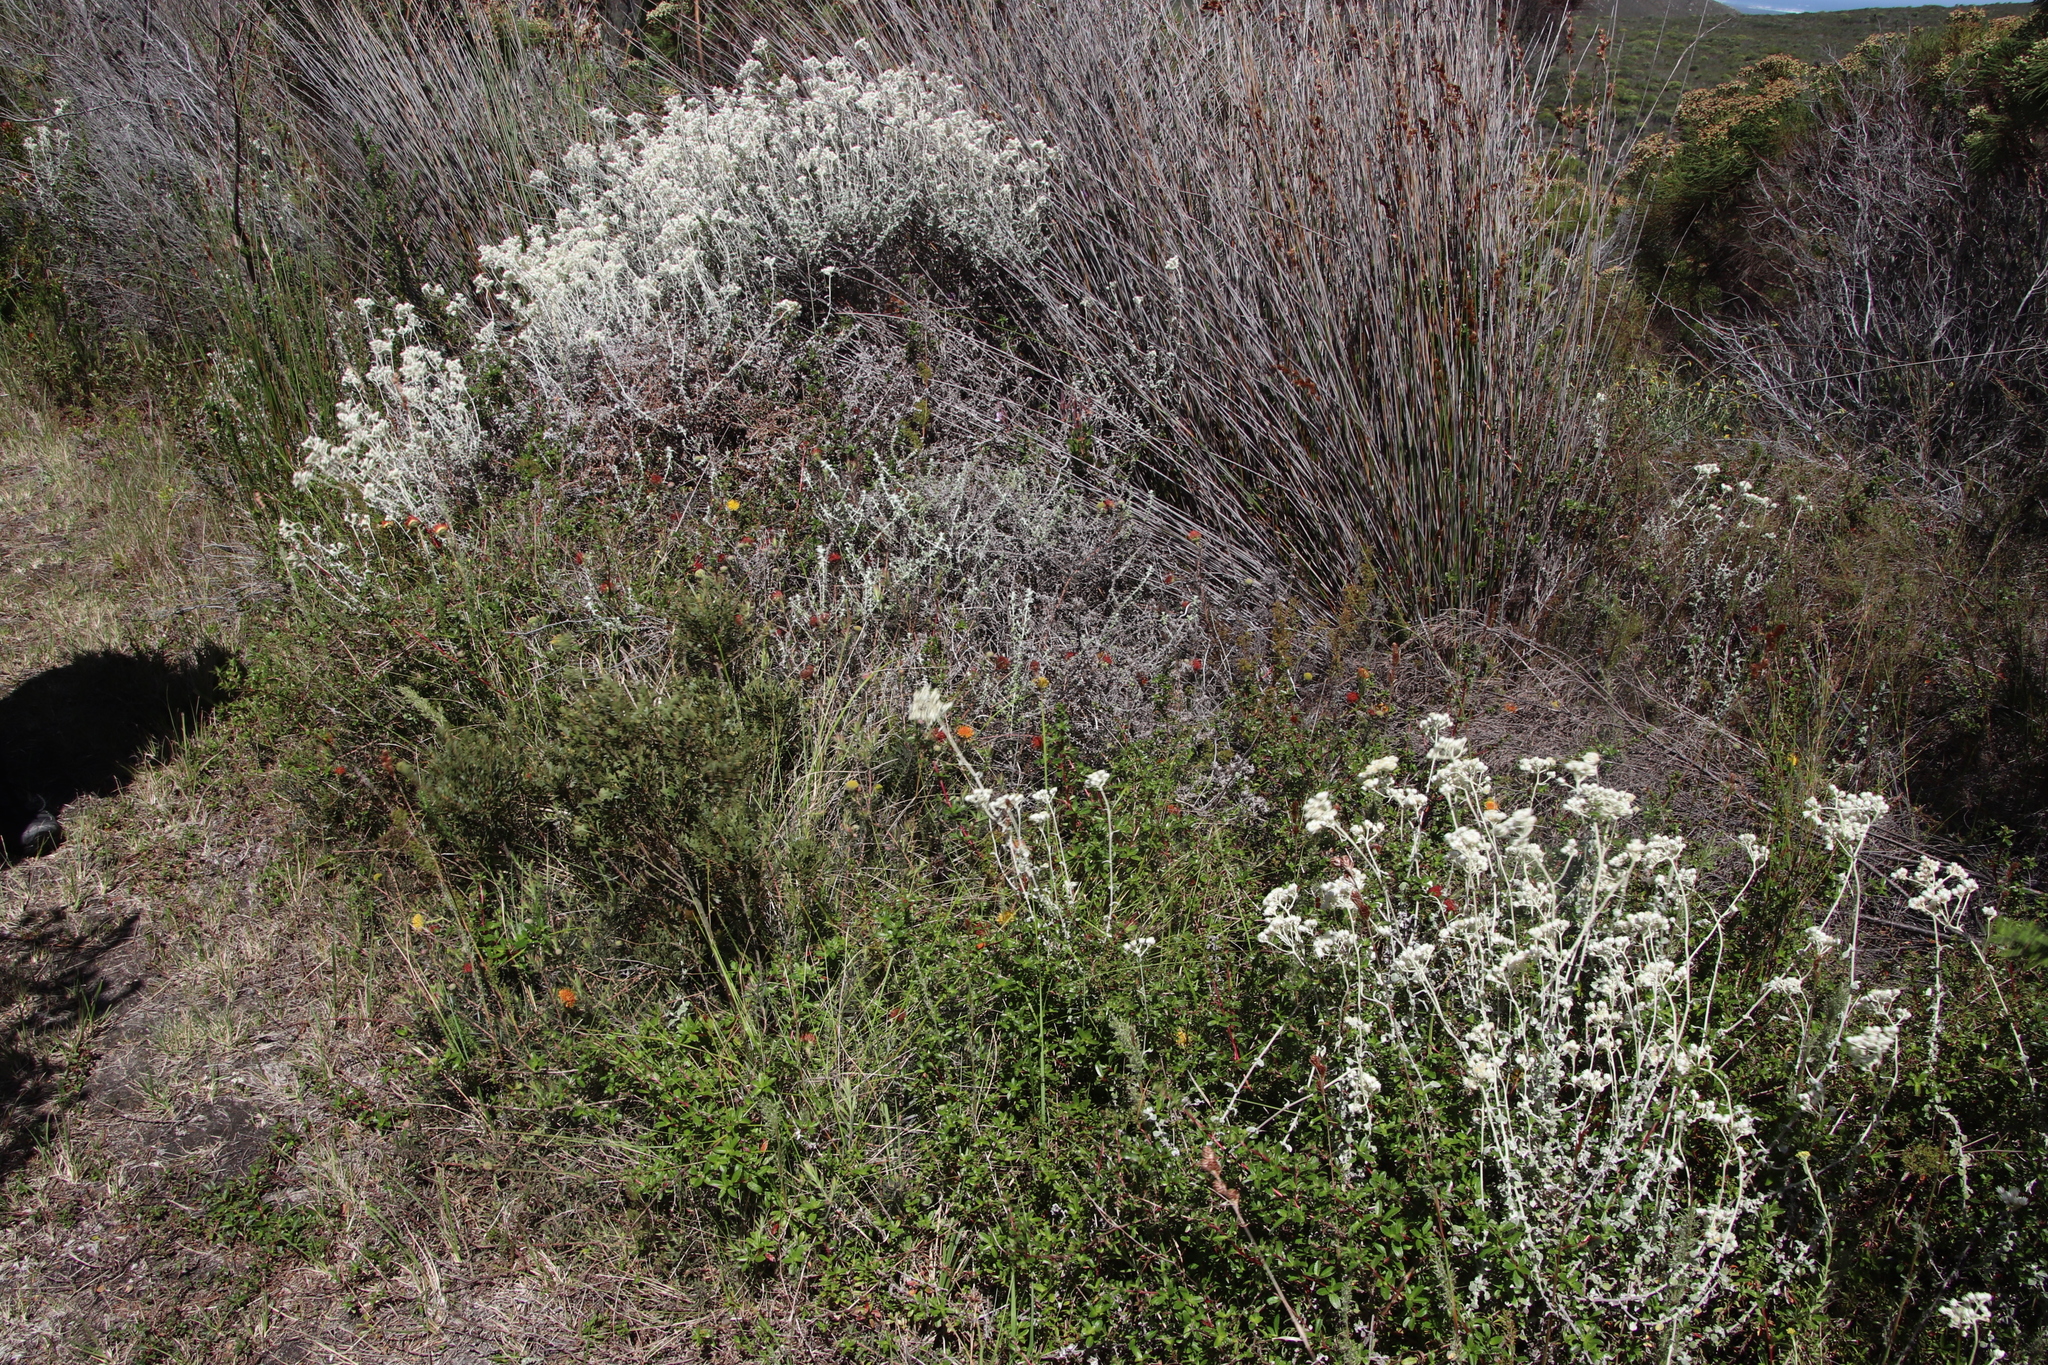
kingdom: Plantae
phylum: Tracheophyta
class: Magnoliopsida
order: Proteales
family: Proteaceae
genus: Leucospermum
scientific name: Leucospermum prostratum
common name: Yellow-trailing pincushion
